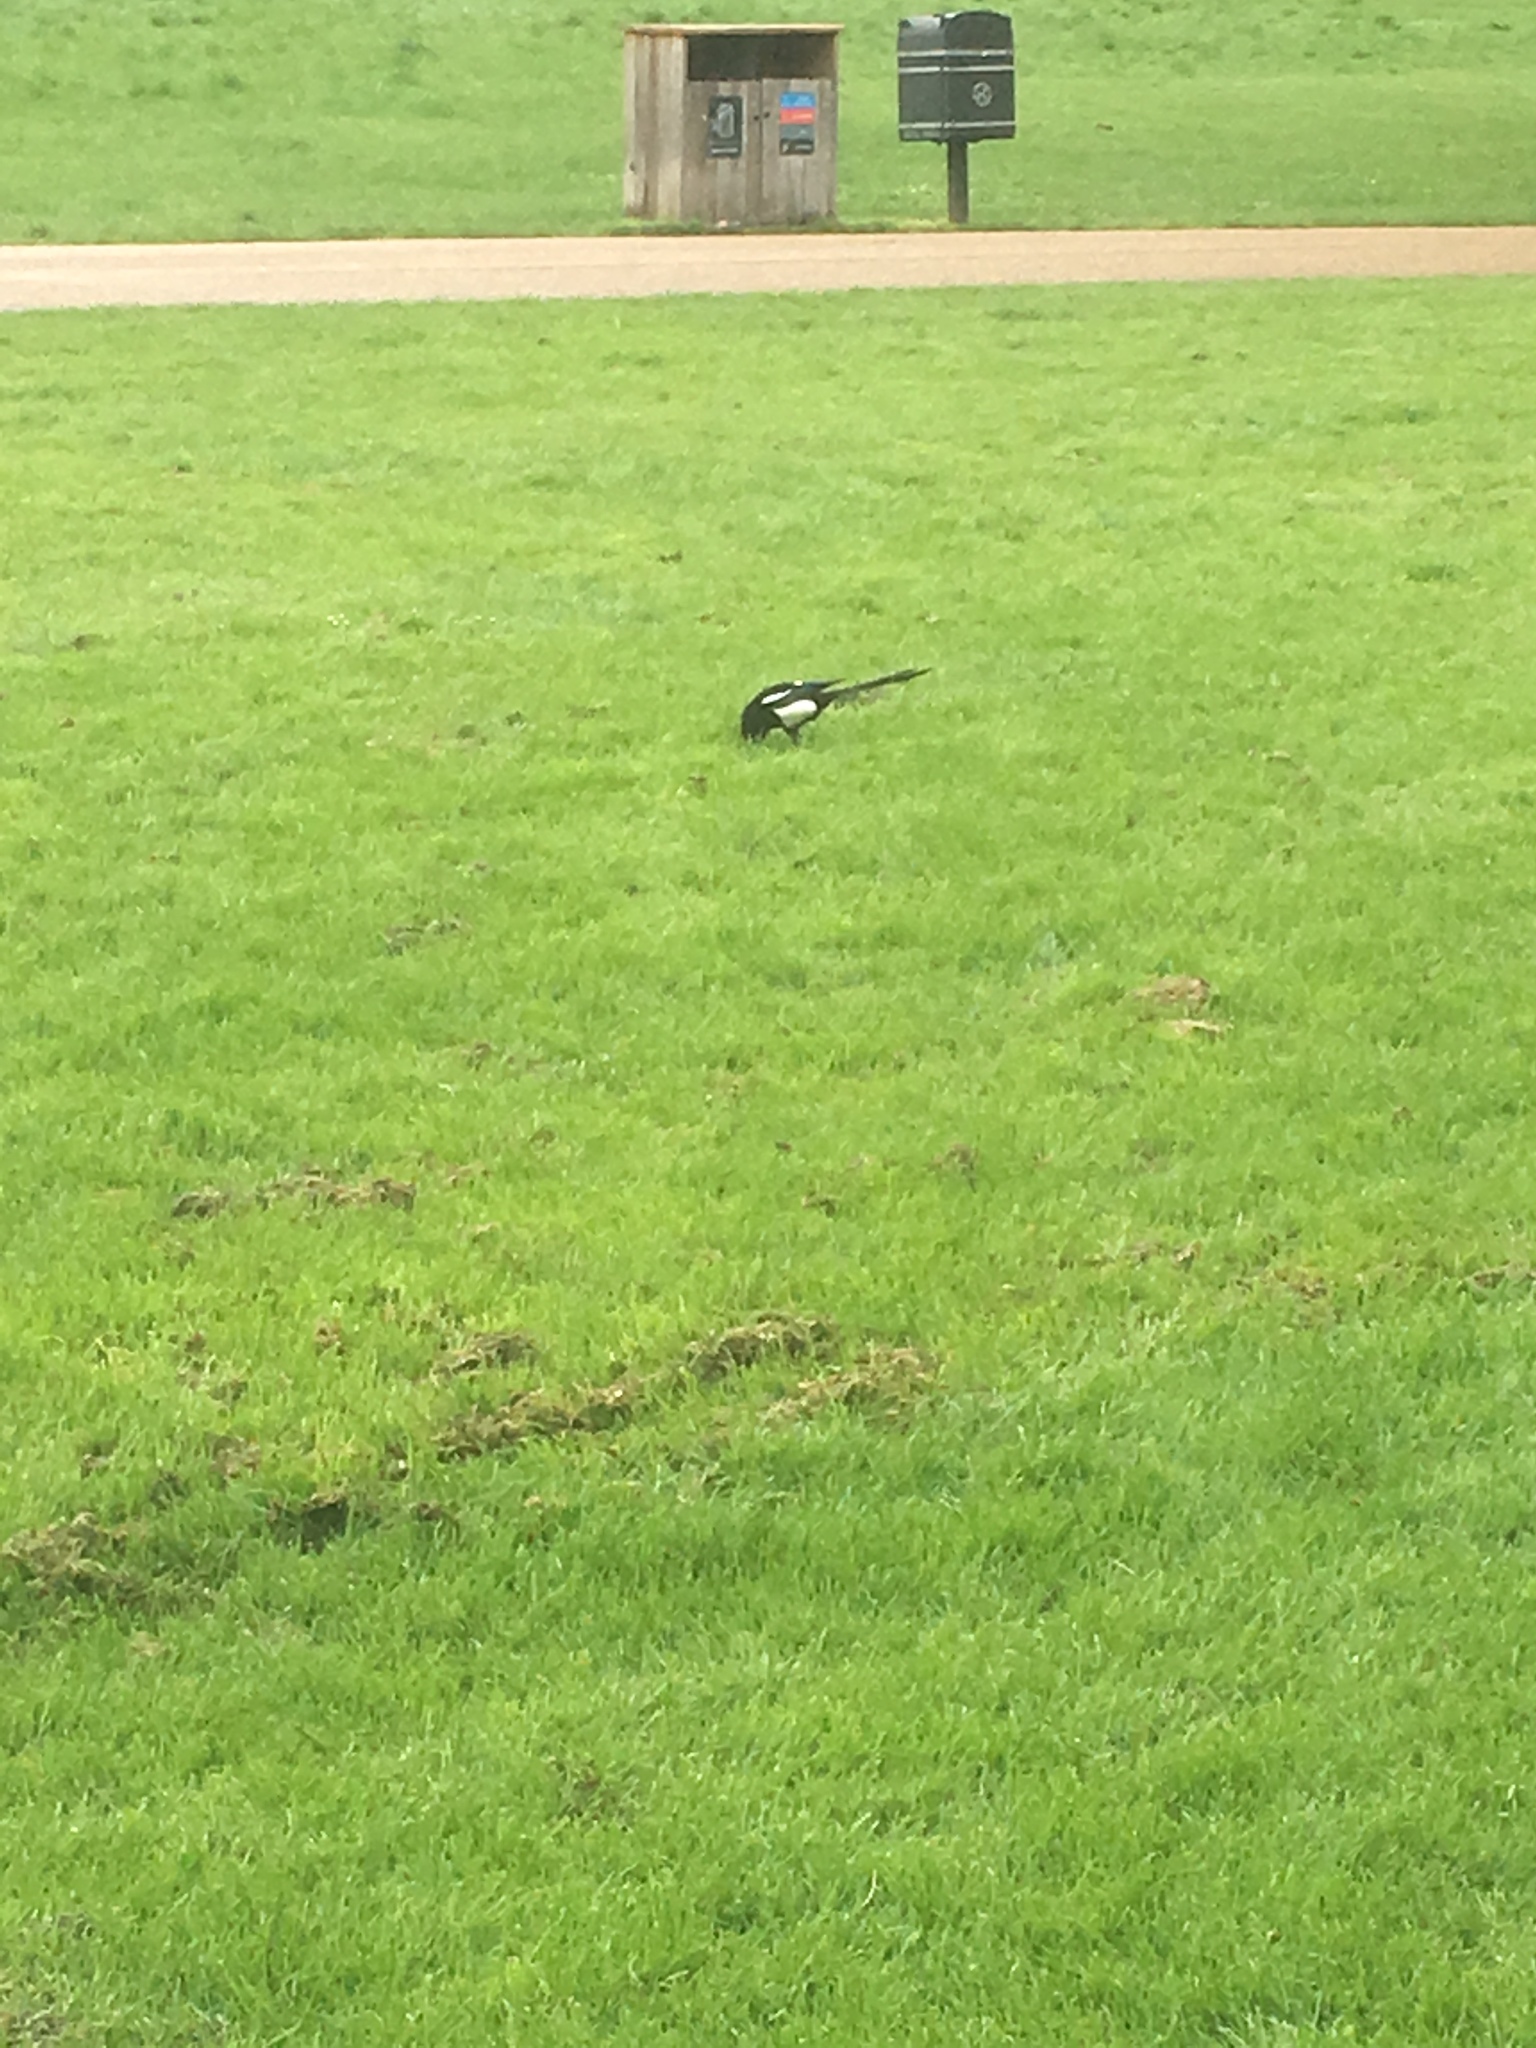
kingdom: Animalia
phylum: Chordata
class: Aves
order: Passeriformes
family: Corvidae
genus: Pica
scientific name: Pica pica
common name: Eurasian magpie
